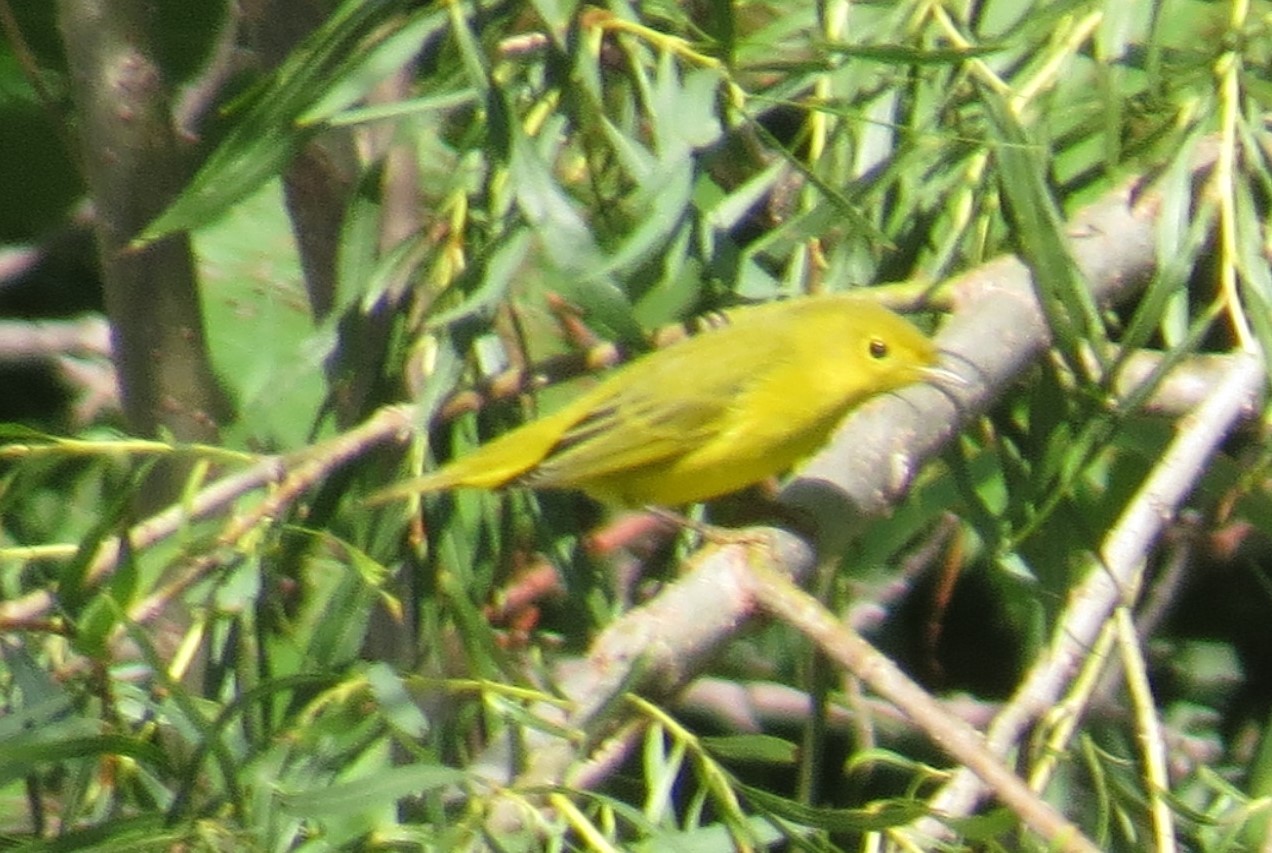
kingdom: Animalia
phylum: Chordata
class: Aves
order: Passeriformes
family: Parulidae
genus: Setophaga
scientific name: Setophaga petechia
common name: Yellow warbler
